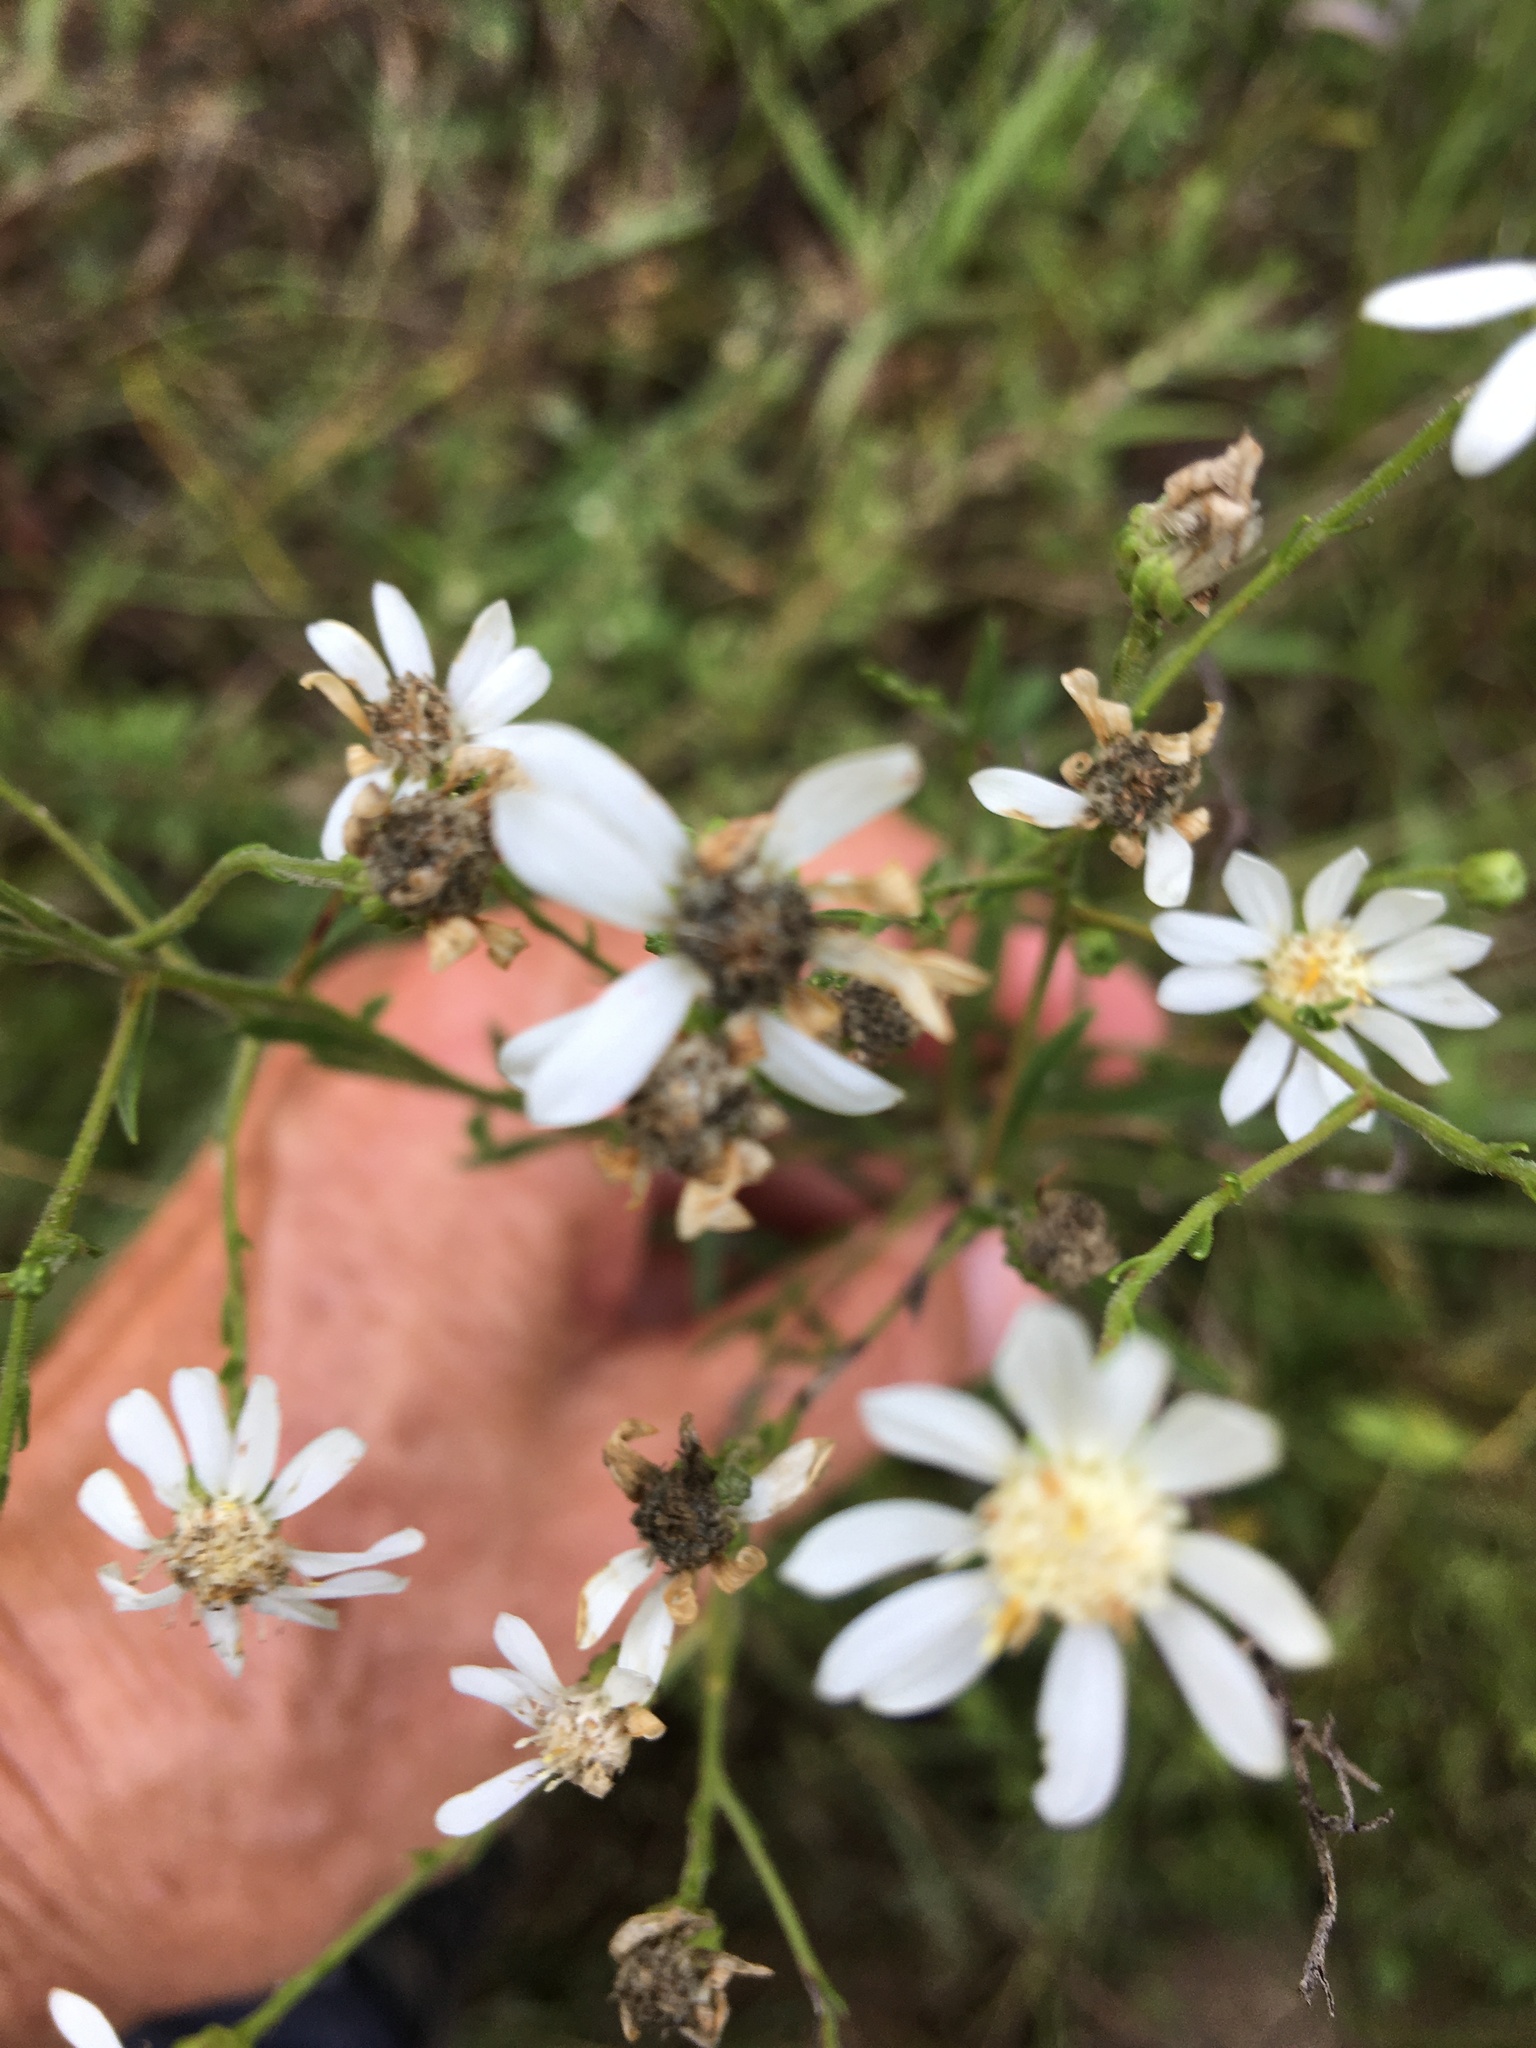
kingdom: Plantae
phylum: Tracheophyta
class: Magnoliopsida
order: Asterales
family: Asteraceae
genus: Solidago
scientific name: Solidago ptarmicoides
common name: White flat-top goldenrod
